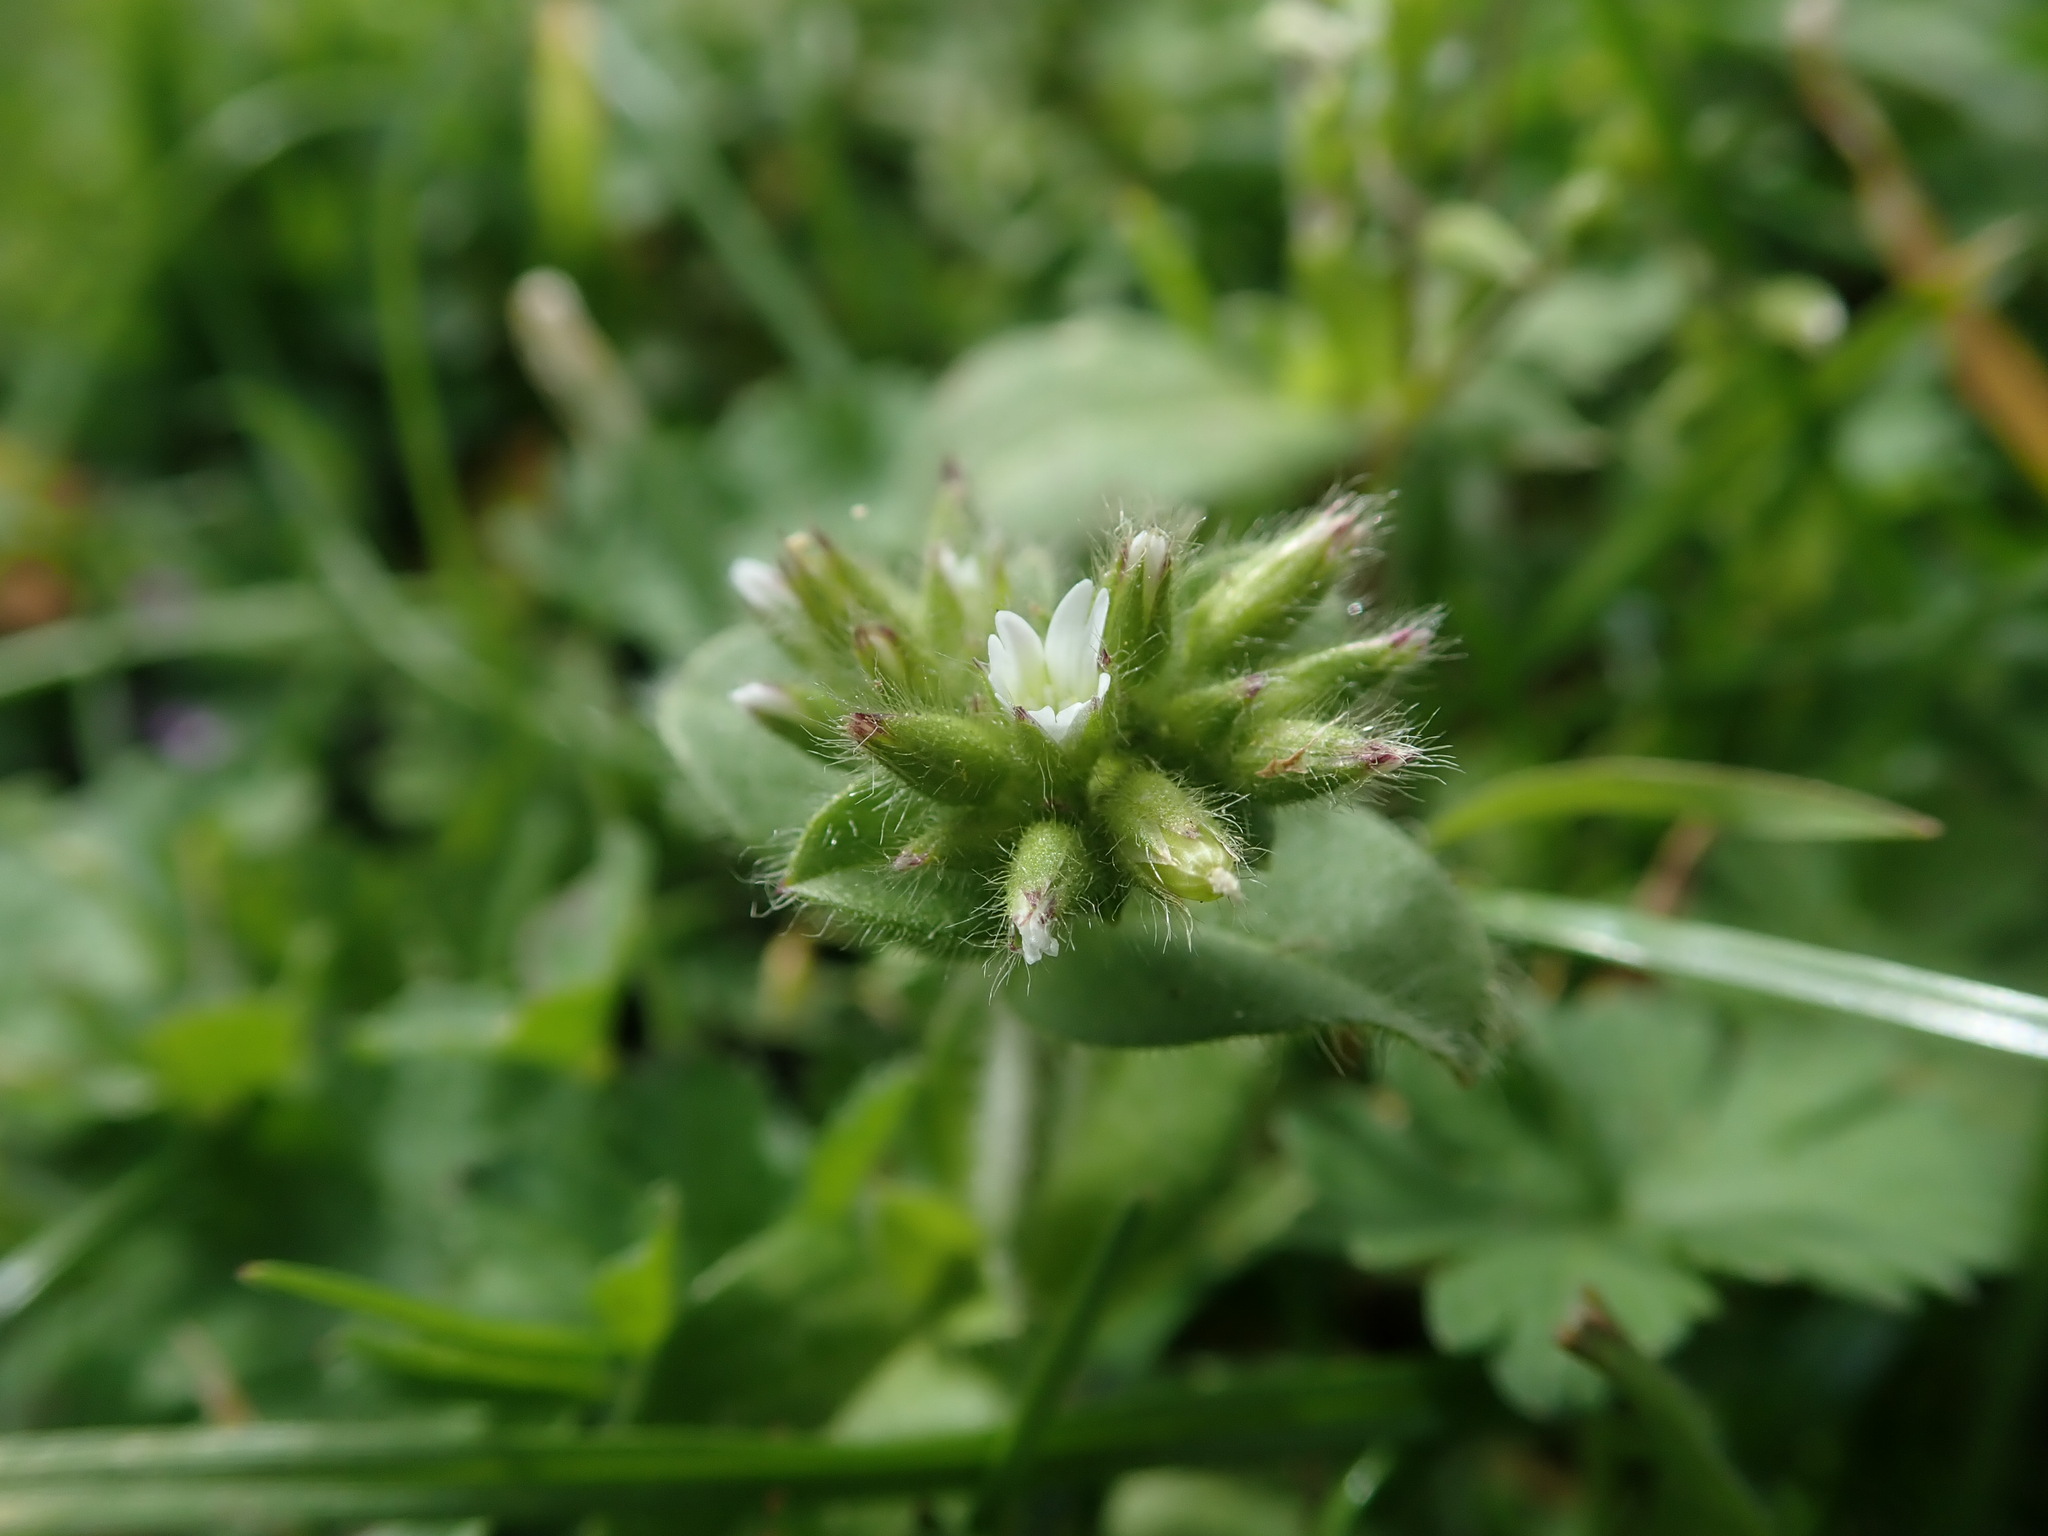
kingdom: Plantae
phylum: Tracheophyta
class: Magnoliopsida
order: Caryophyllales
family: Caryophyllaceae
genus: Cerastium
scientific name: Cerastium glomeratum
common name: Sticky chickweed
